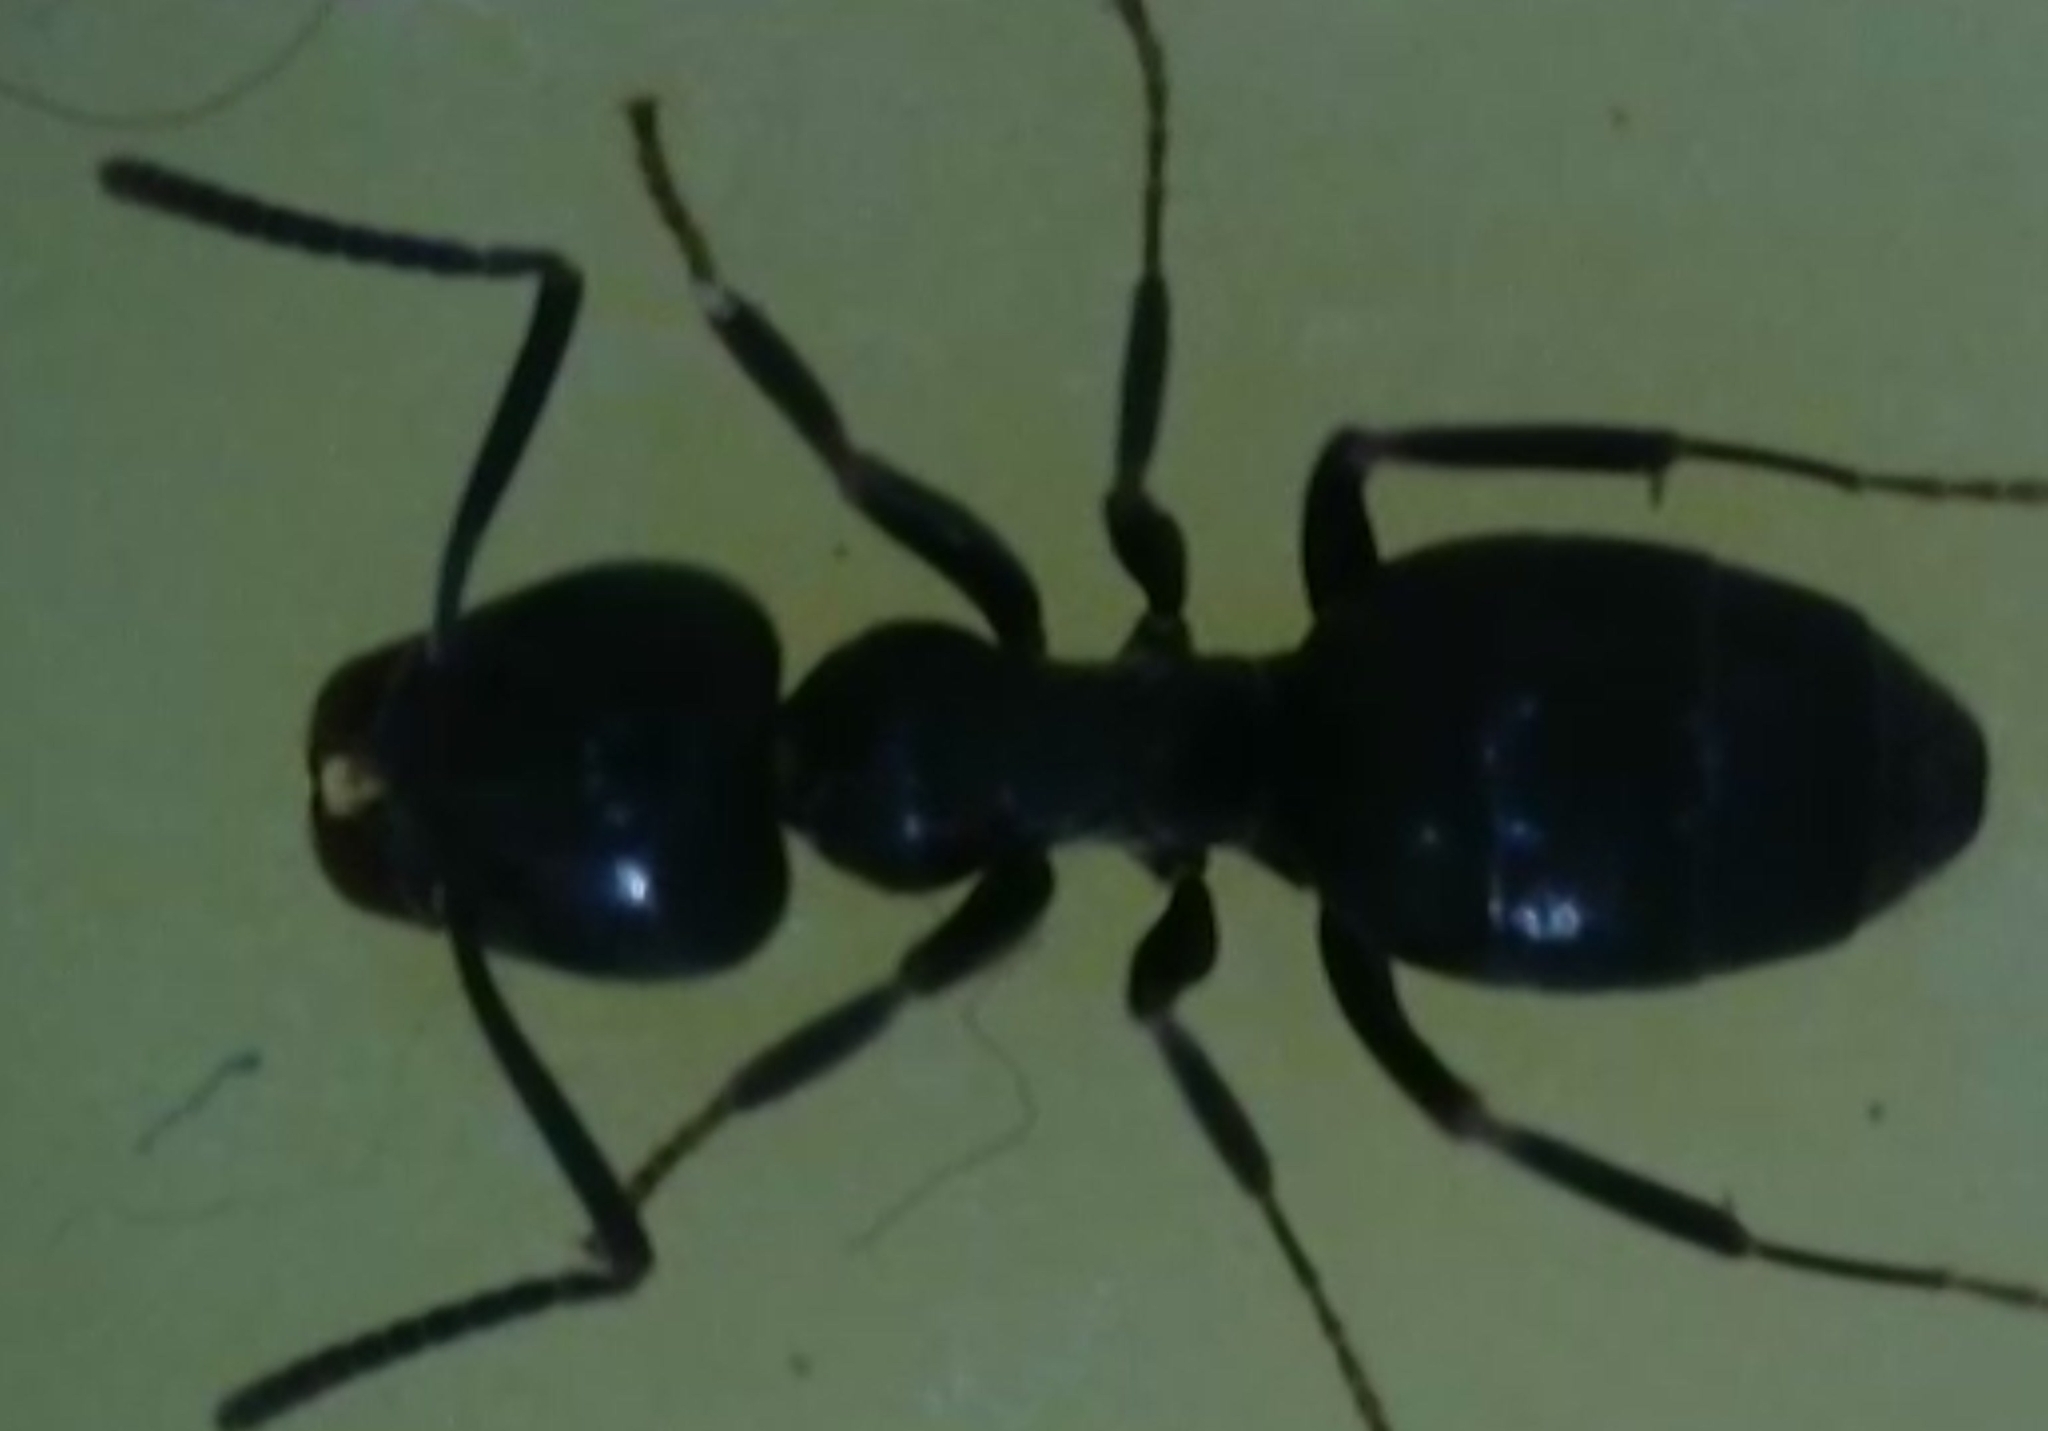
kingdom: Animalia
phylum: Arthropoda
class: Insecta
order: Hymenoptera
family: Formicidae
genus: Tapinoma
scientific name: Tapinoma simrothi
